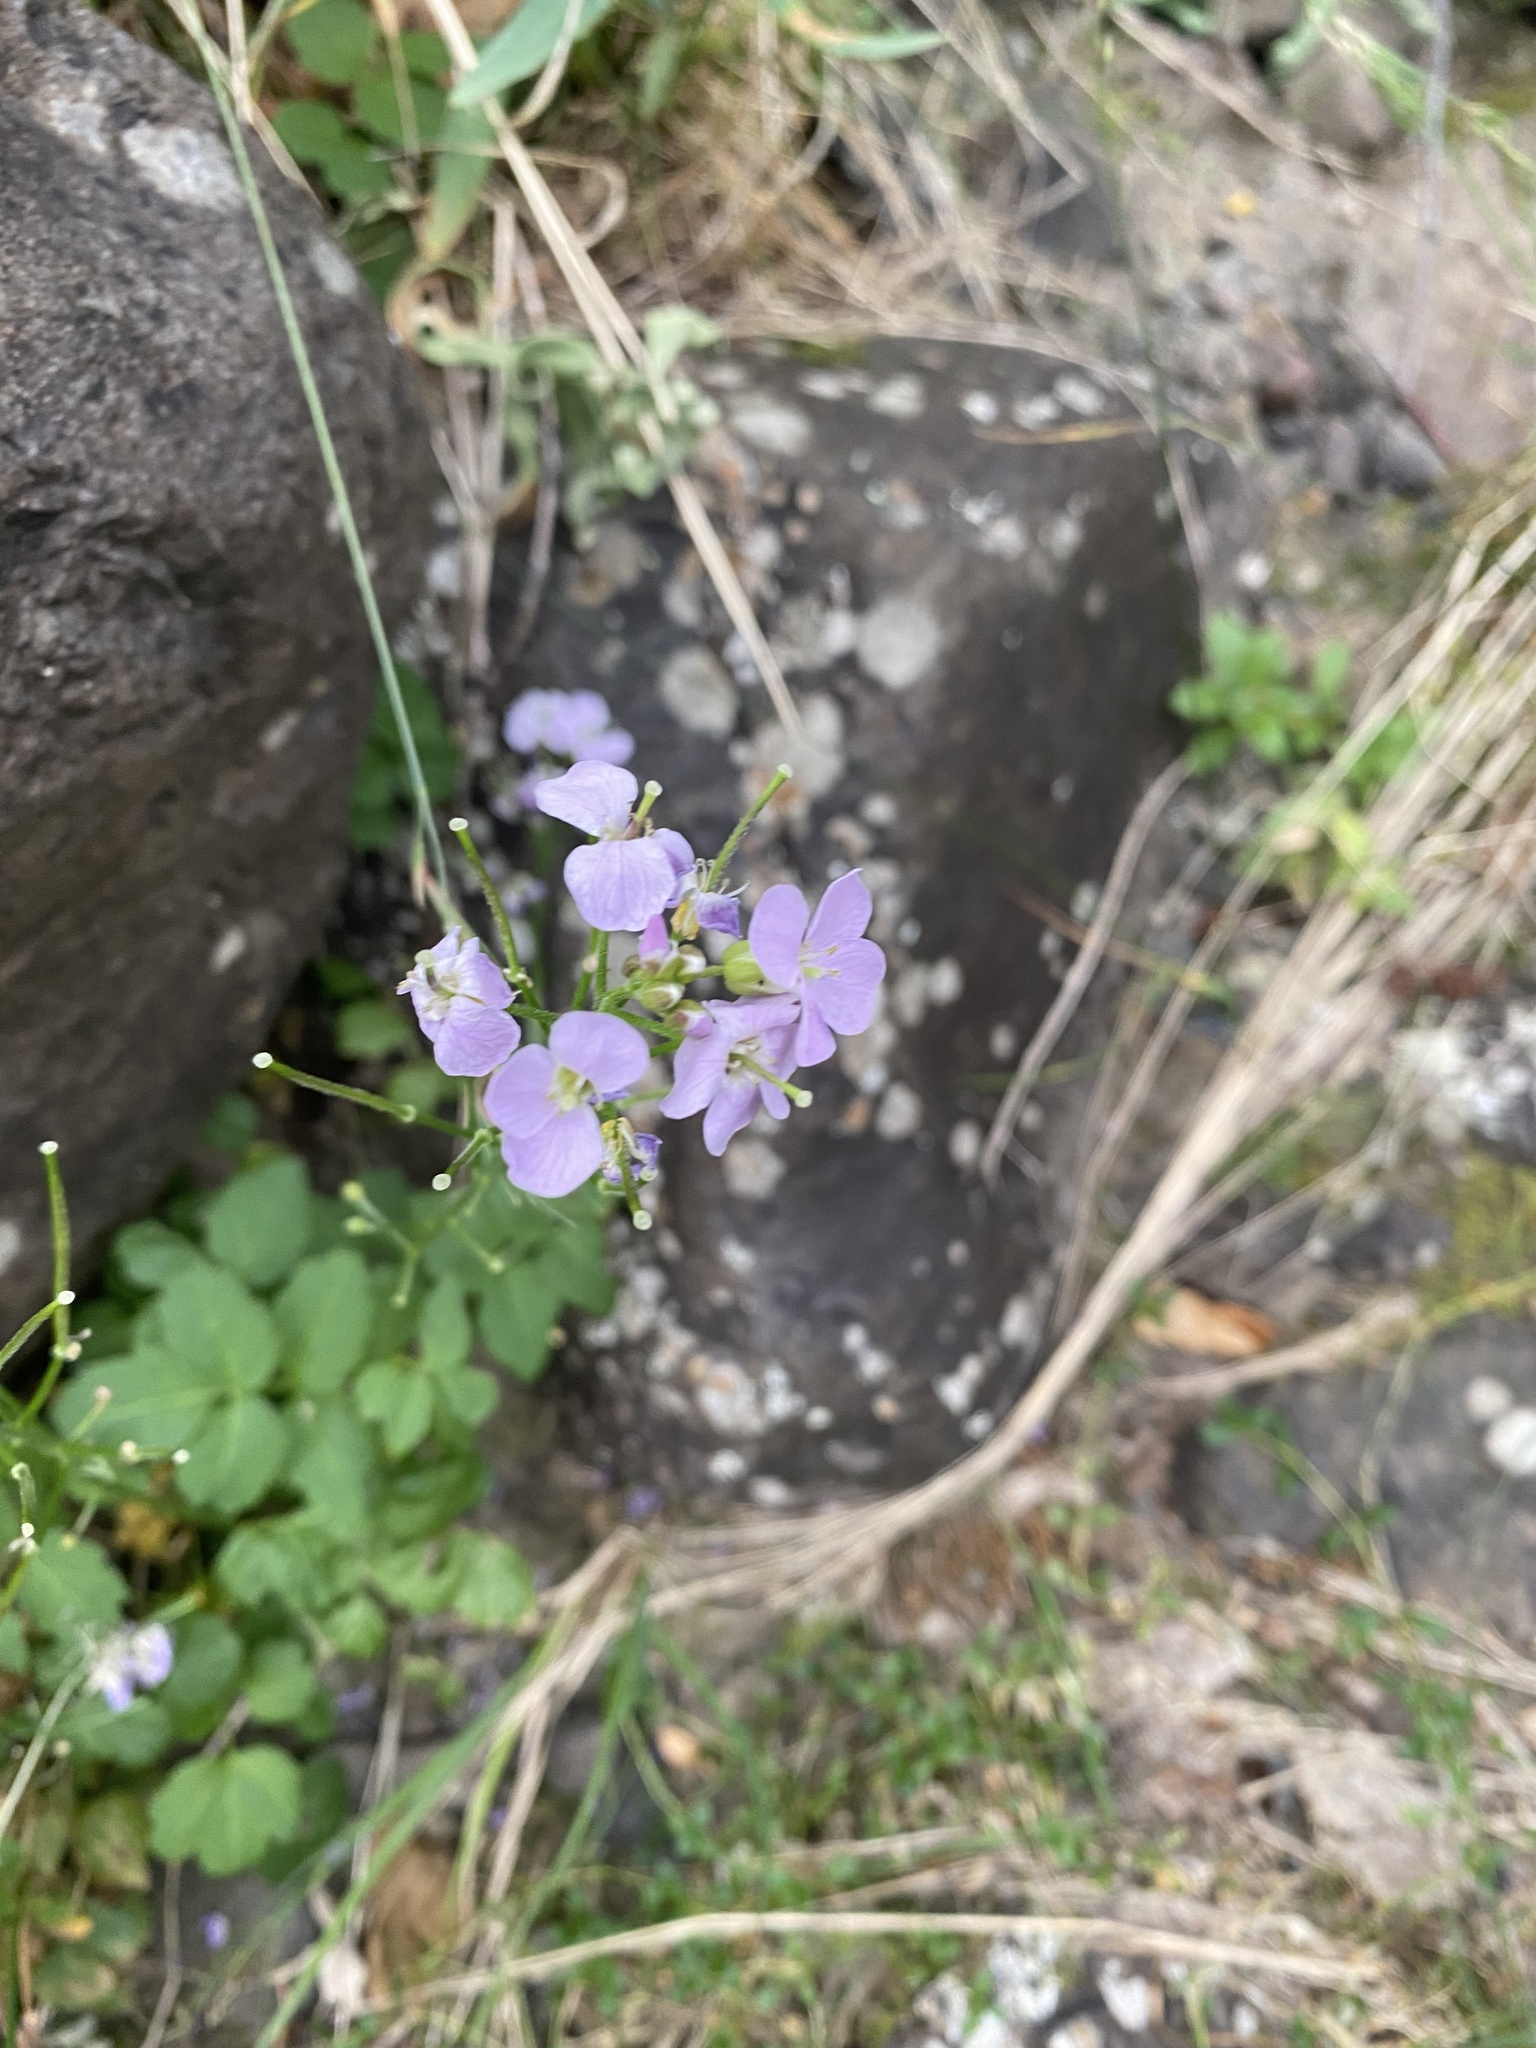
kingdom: Plantae
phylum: Tracheophyta
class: Magnoliopsida
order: Brassicales
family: Brassicaceae
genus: Cardamine
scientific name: Cardamine macrophylla
